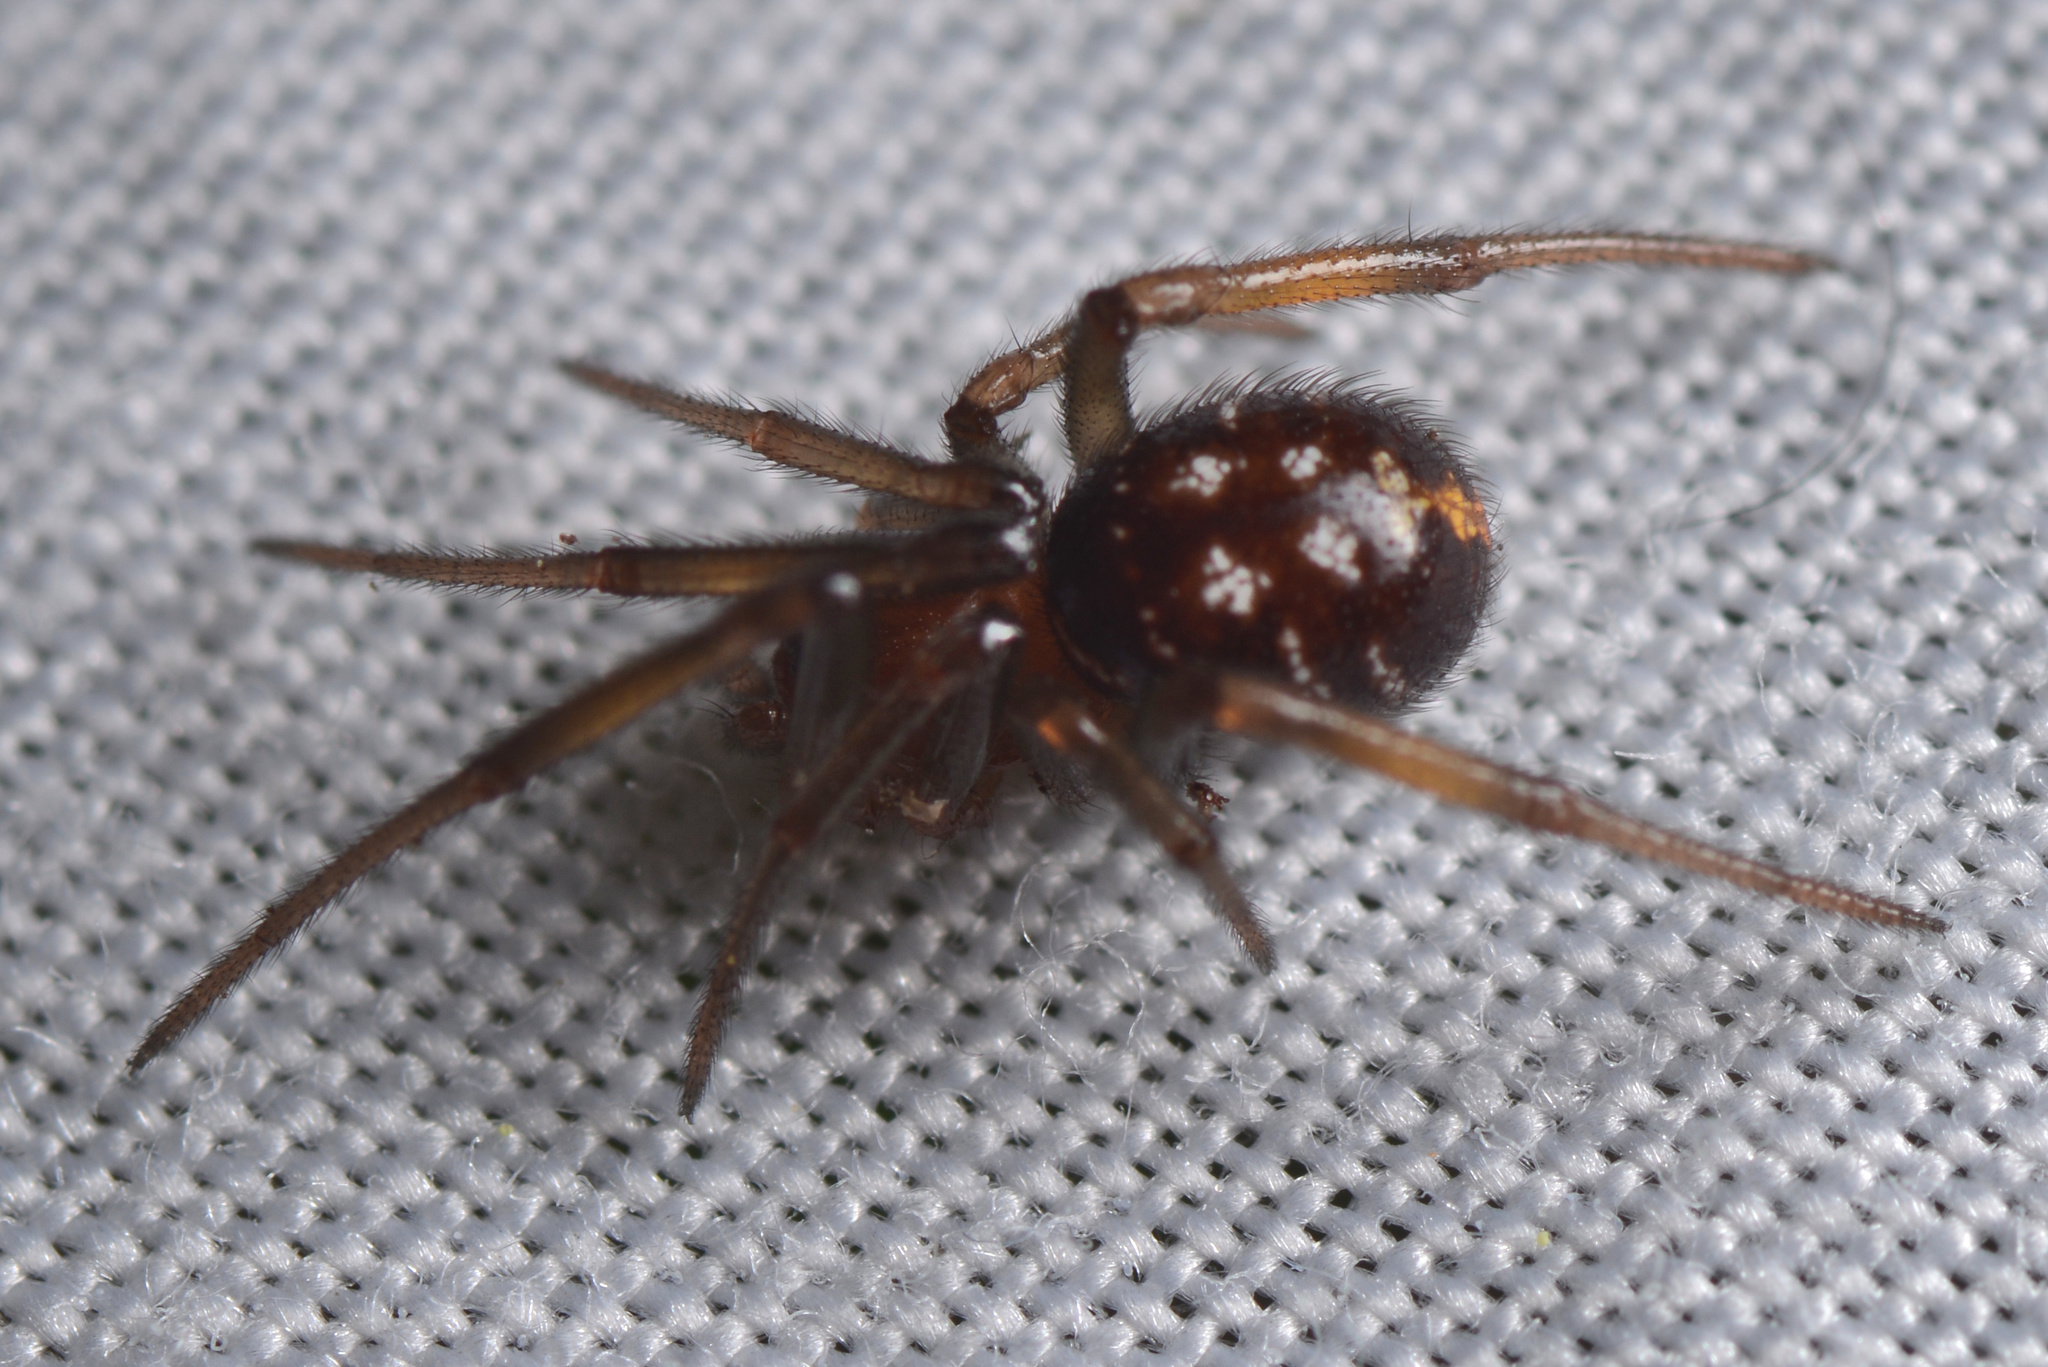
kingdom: Animalia
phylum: Arthropoda
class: Arachnida
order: Araneae
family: Theridiidae
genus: Steatoda
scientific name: Steatoda capensis
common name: Cobweb weaver
